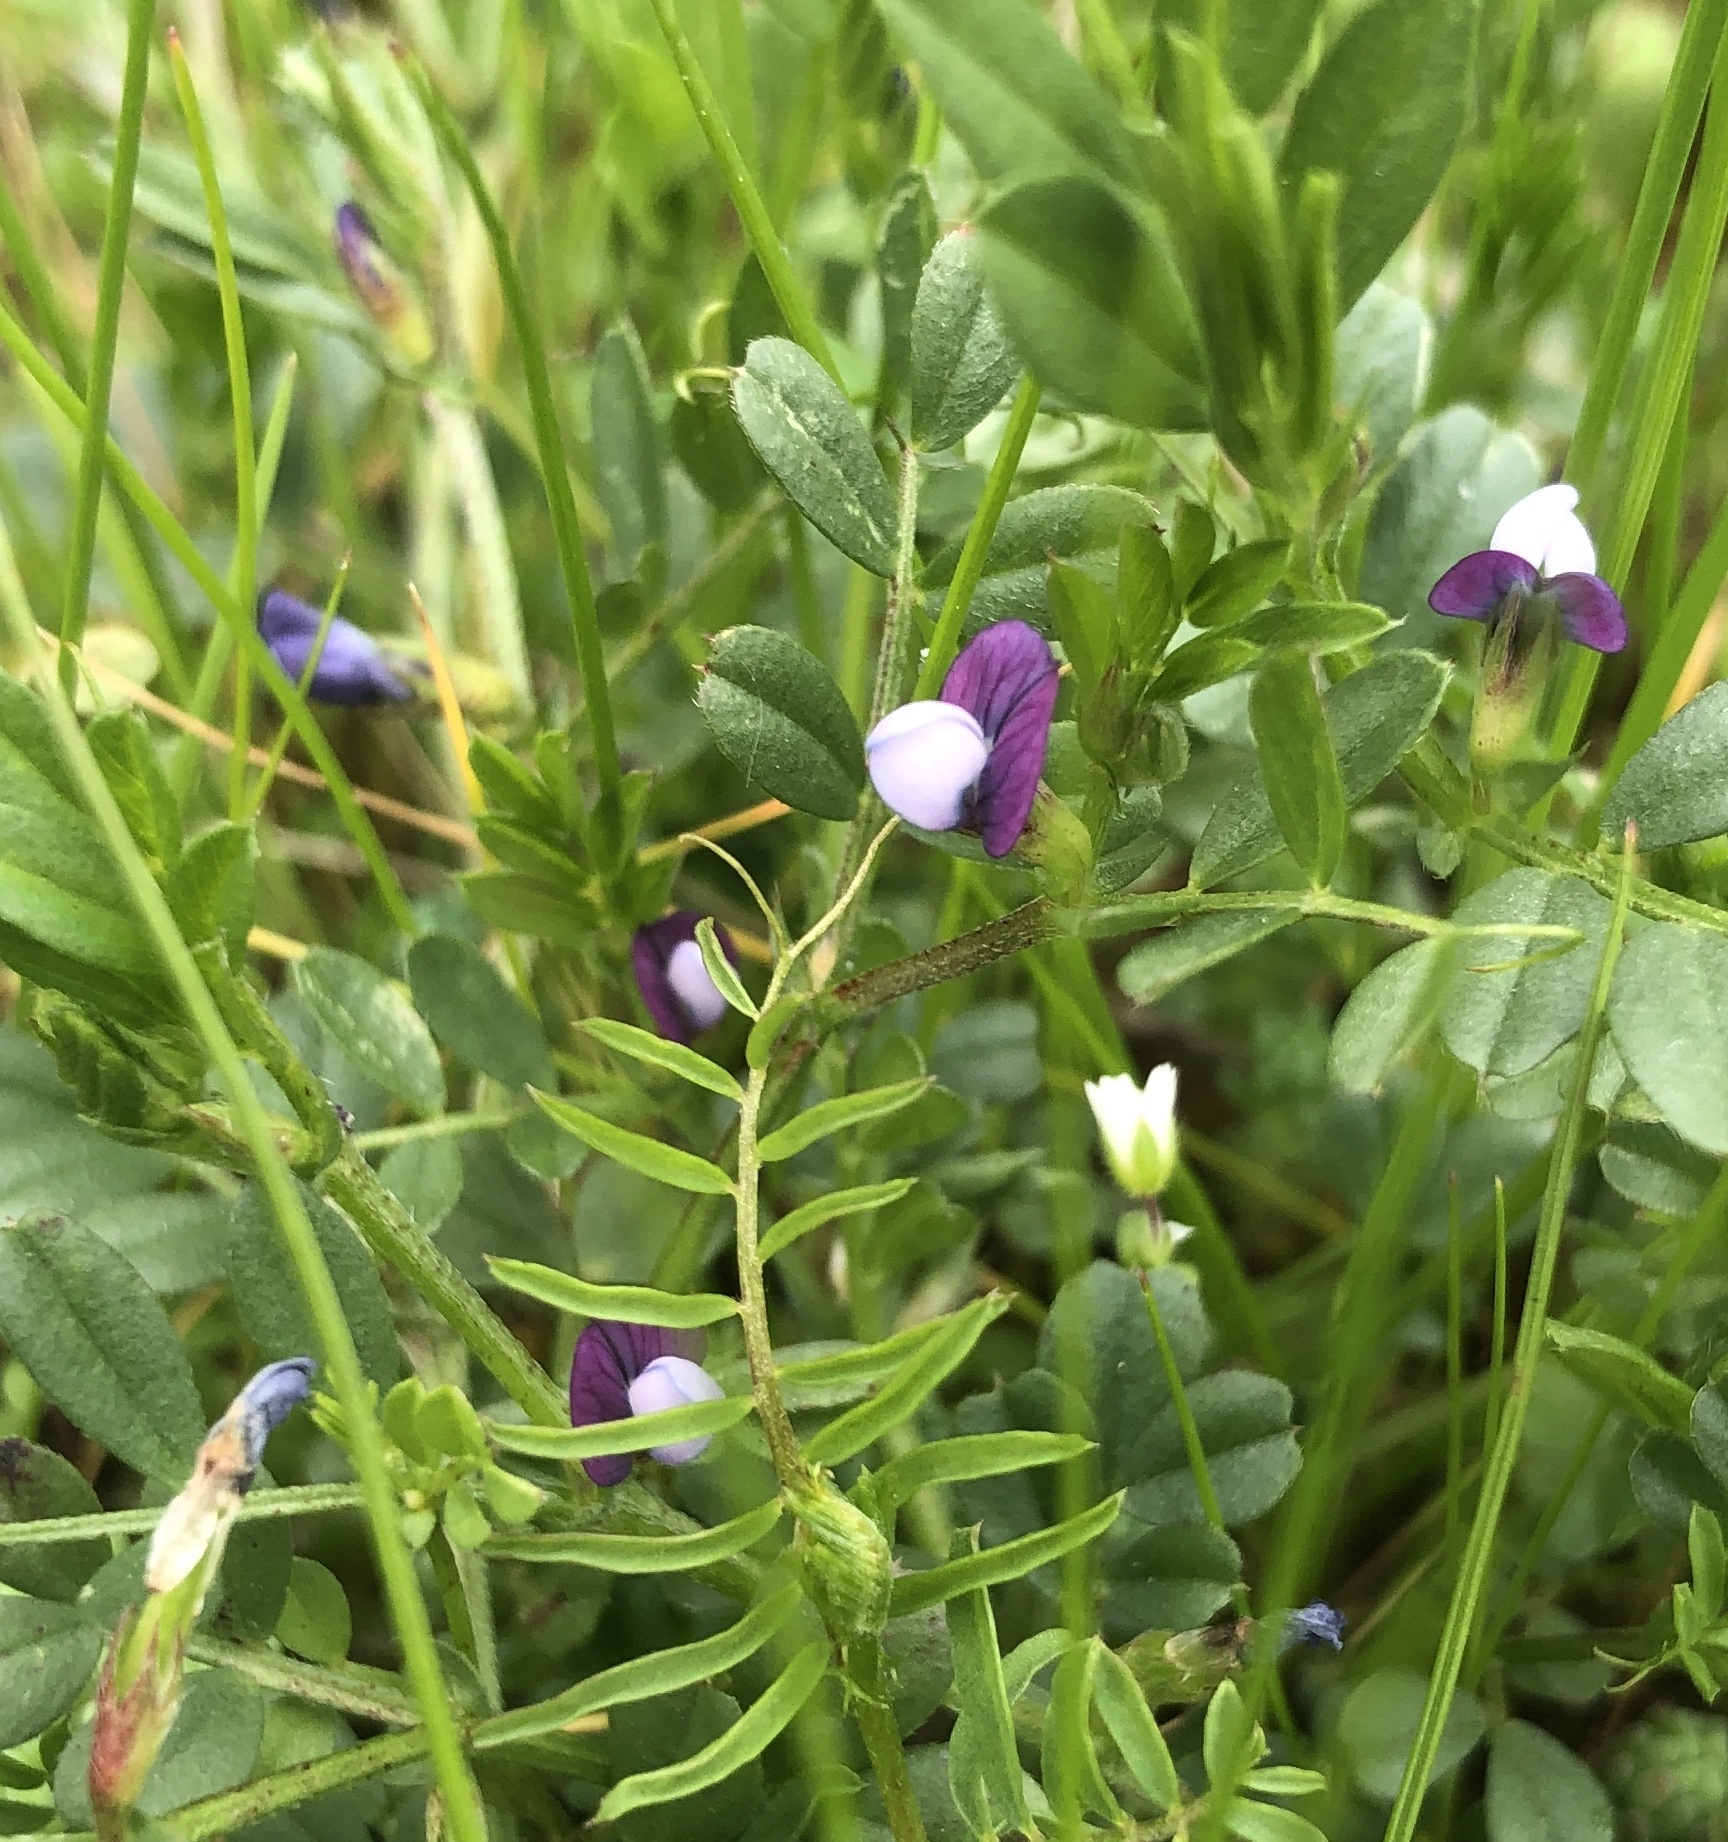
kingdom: Plantae
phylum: Tracheophyta
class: Magnoliopsida
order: Fabales
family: Fabaceae
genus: Vicia
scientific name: Vicia lathyroides
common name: Spring vetch
